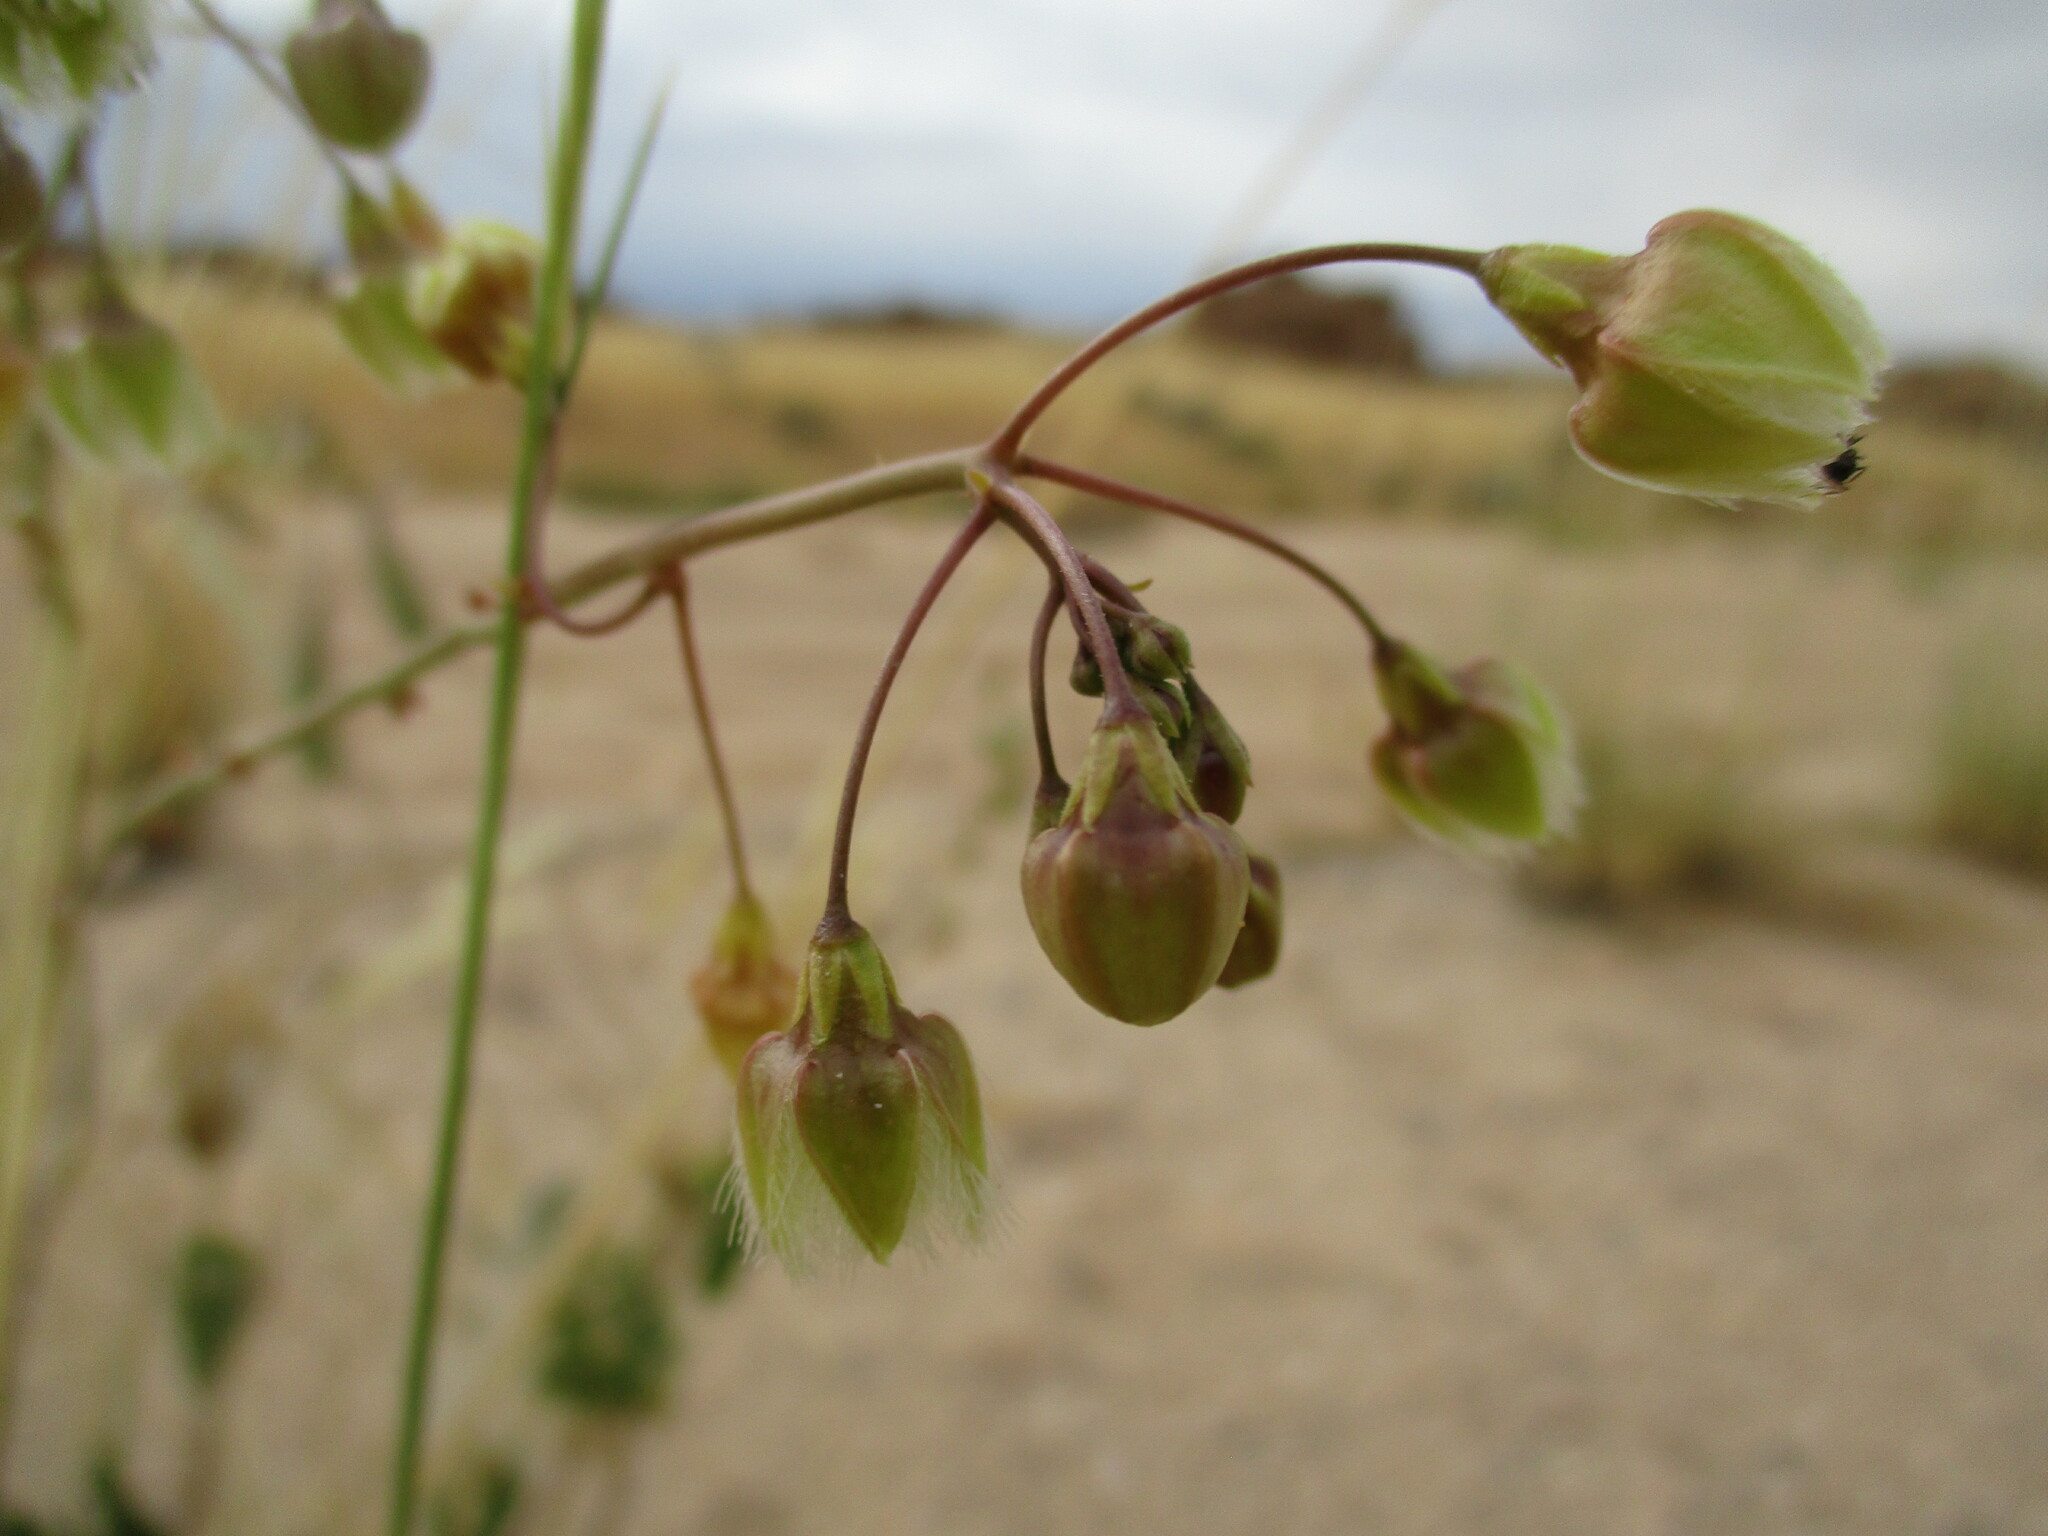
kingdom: Plantae
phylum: Tracheophyta
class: Magnoliopsida
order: Gentianales
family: Apocynaceae
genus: Pergularia
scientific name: Pergularia daemia
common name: Trellis-vine
